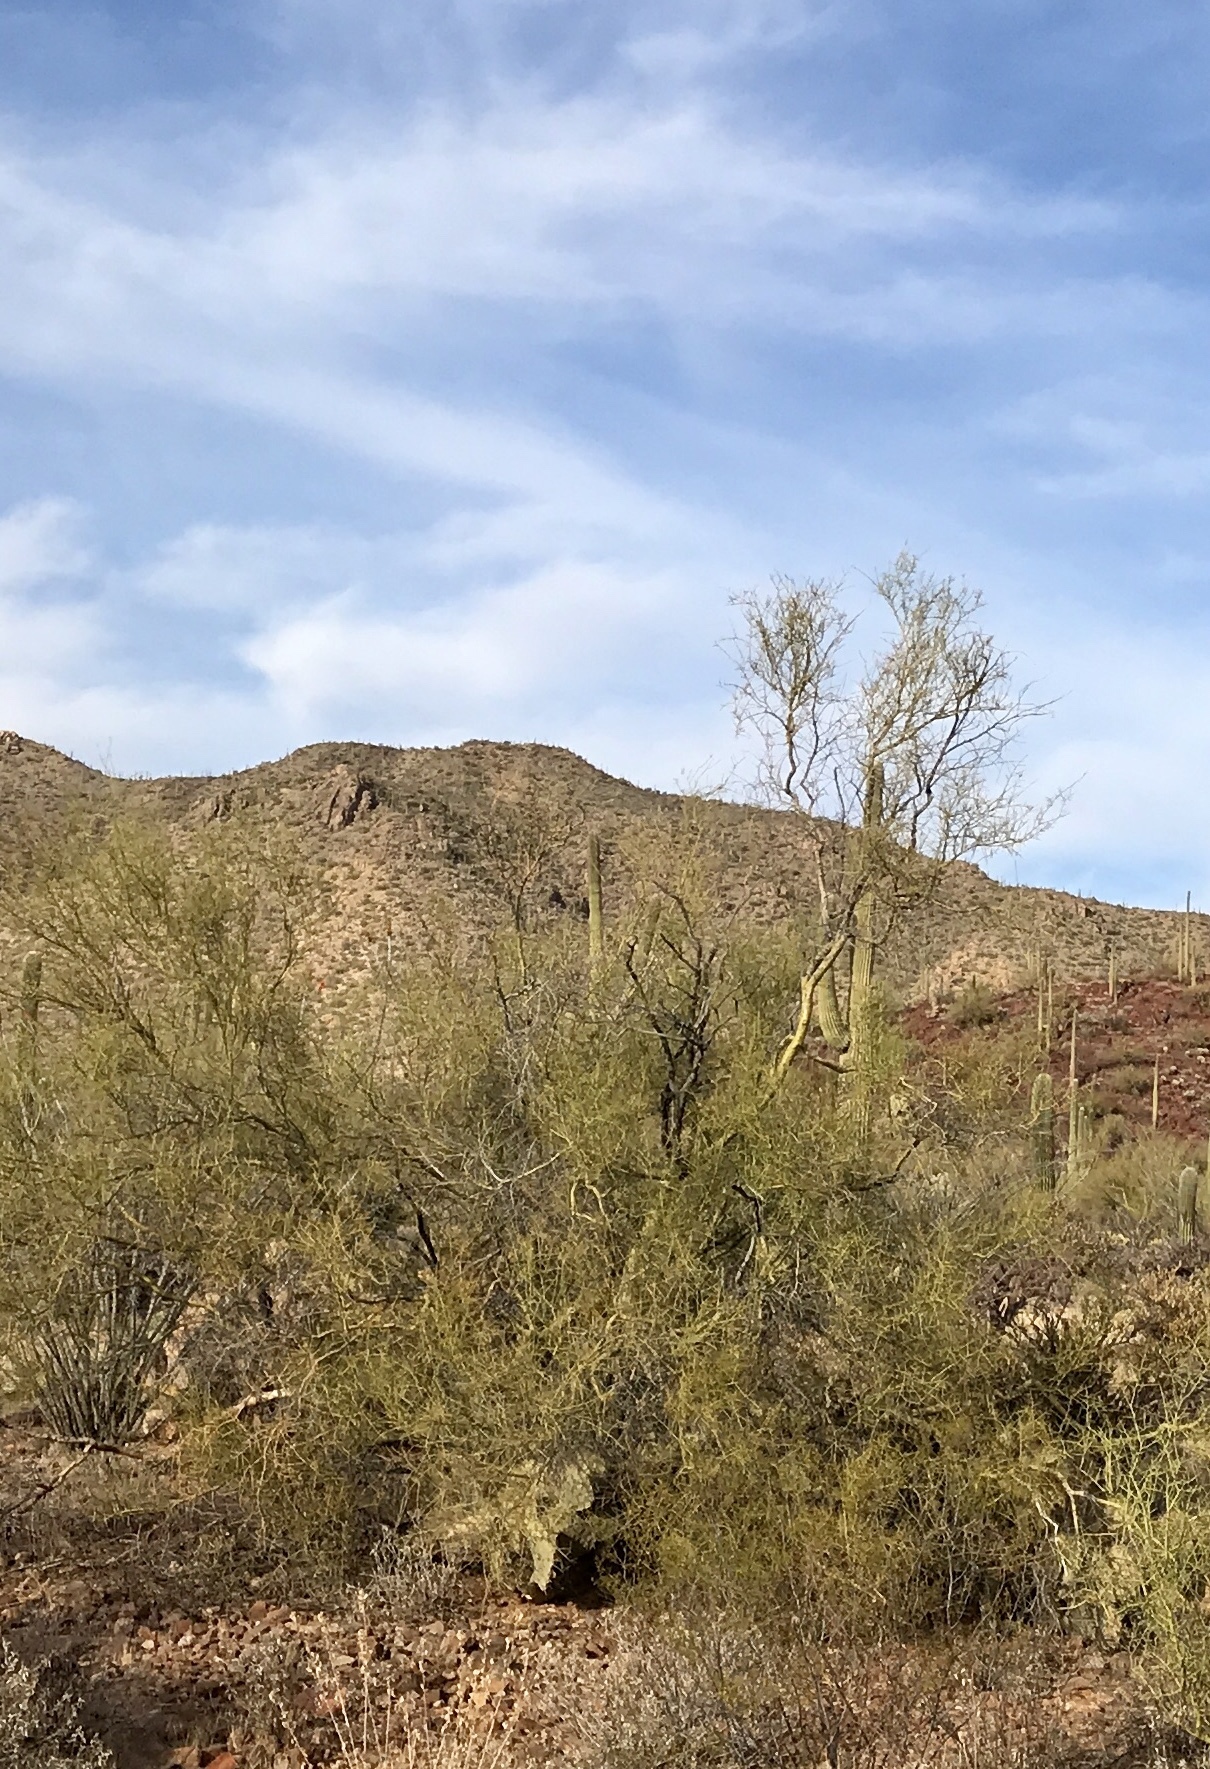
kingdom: Plantae
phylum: Tracheophyta
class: Magnoliopsida
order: Fabales
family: Fabaceae
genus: Parkinsonia
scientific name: Parkinsonia microphylla
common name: Yellow paloverde
